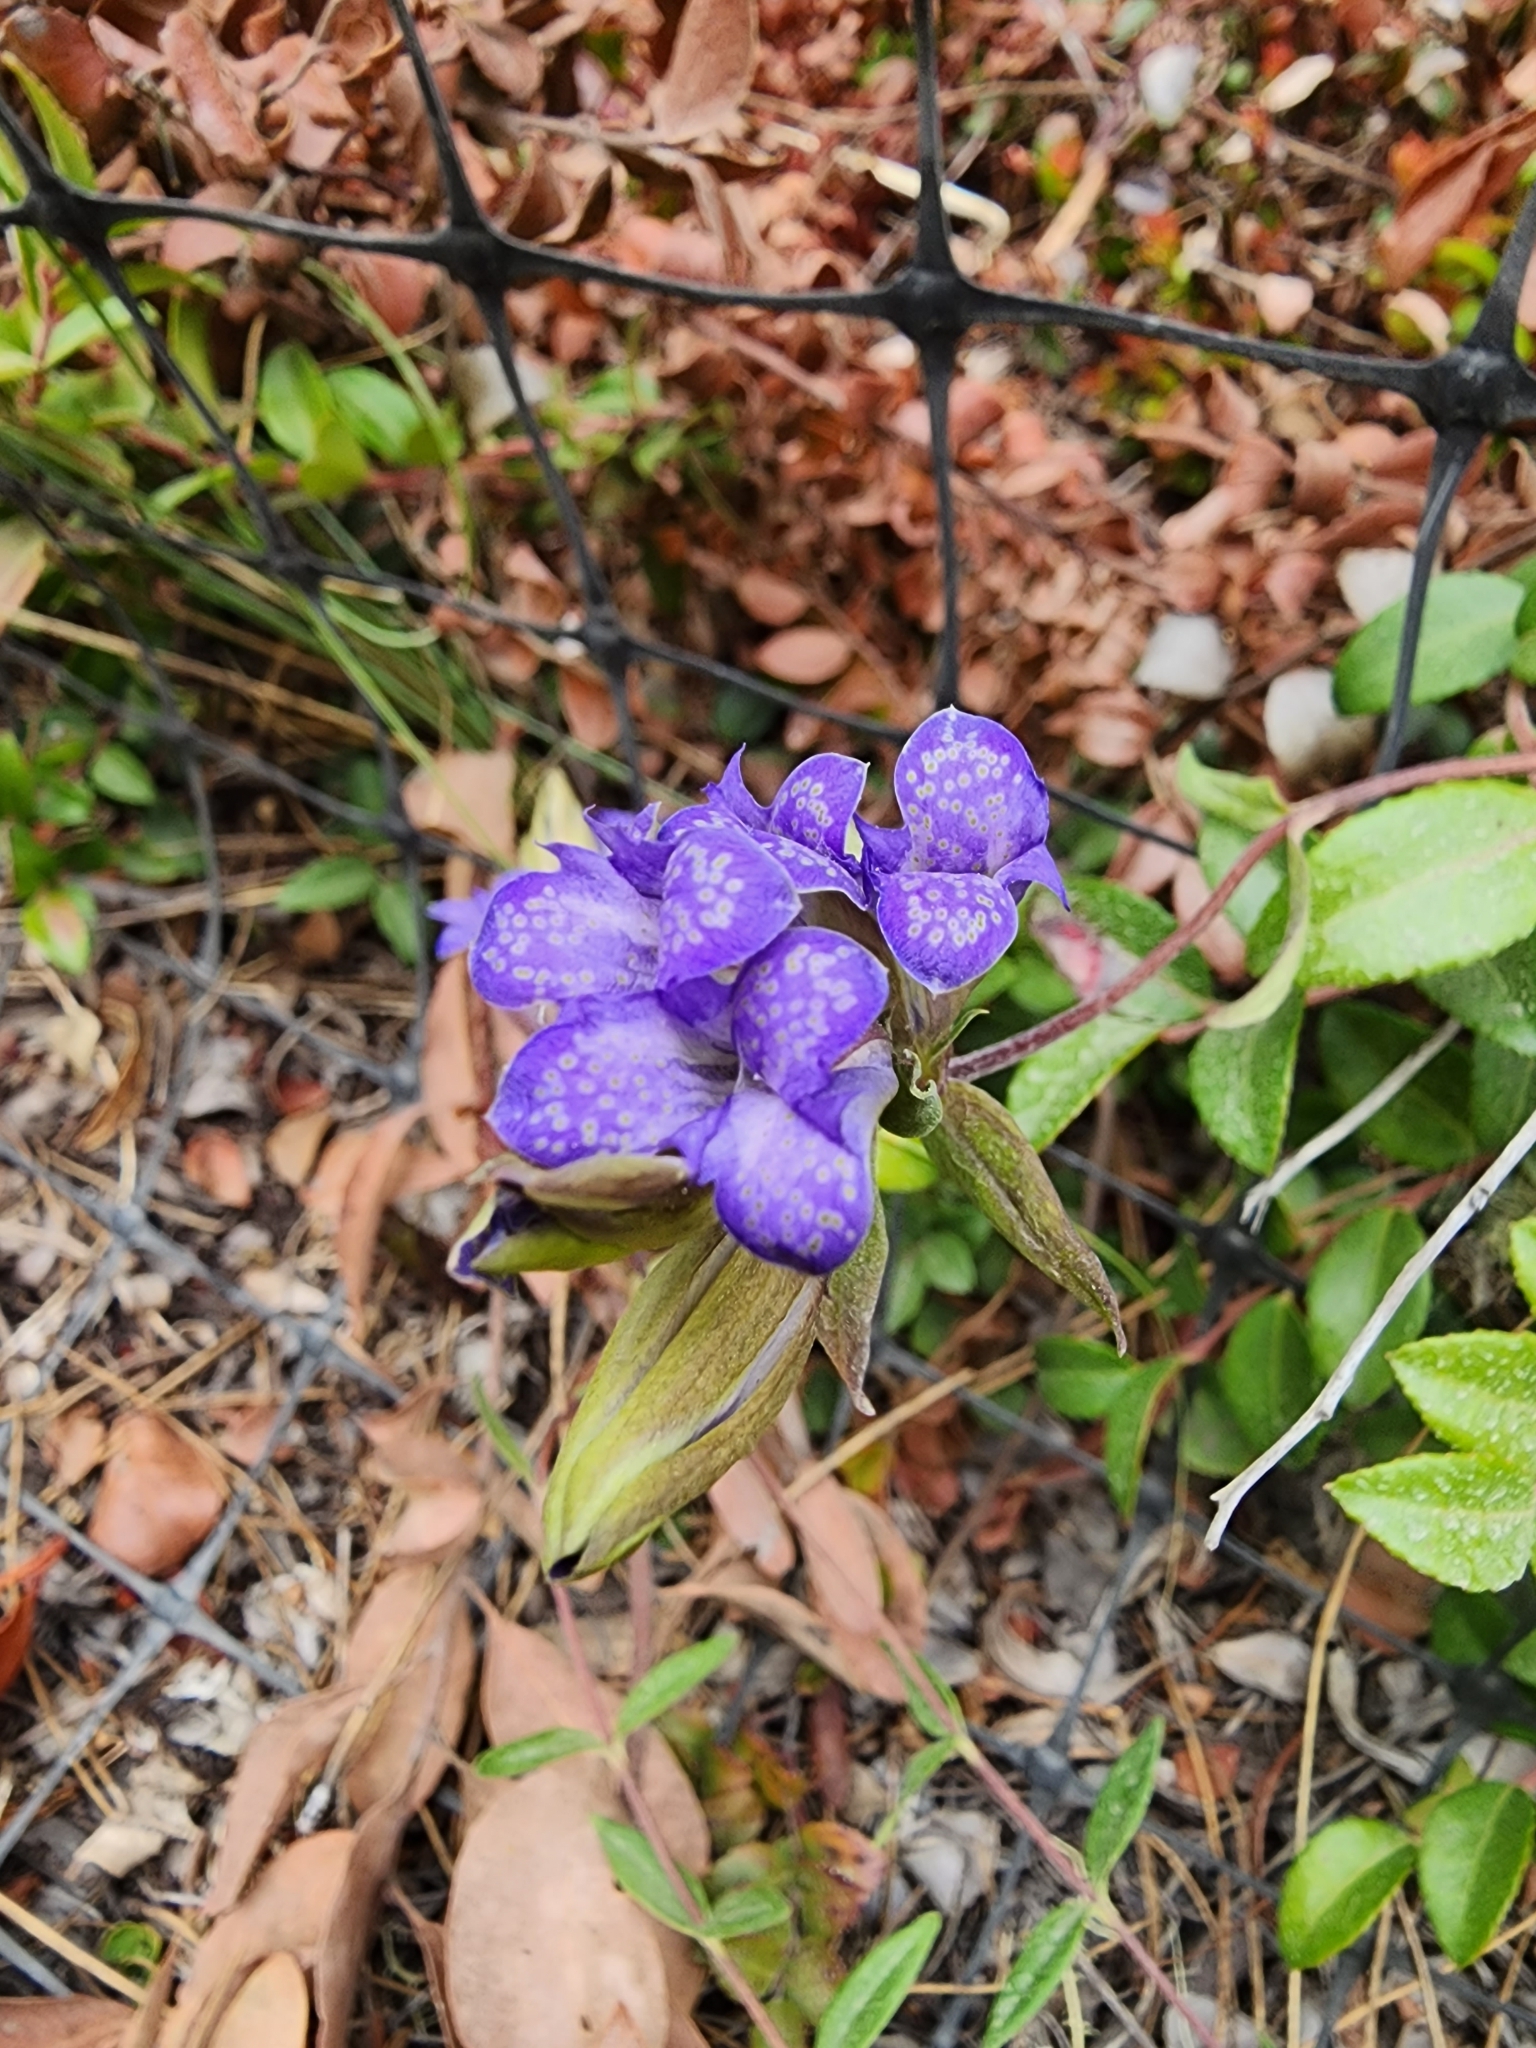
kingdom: Plantae
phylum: Tracheophyta
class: Magnoliopsida
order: Gentianales
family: Gentianaceae
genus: Gentiana
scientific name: Gentiana affinis
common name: Rocky mountain gentian
